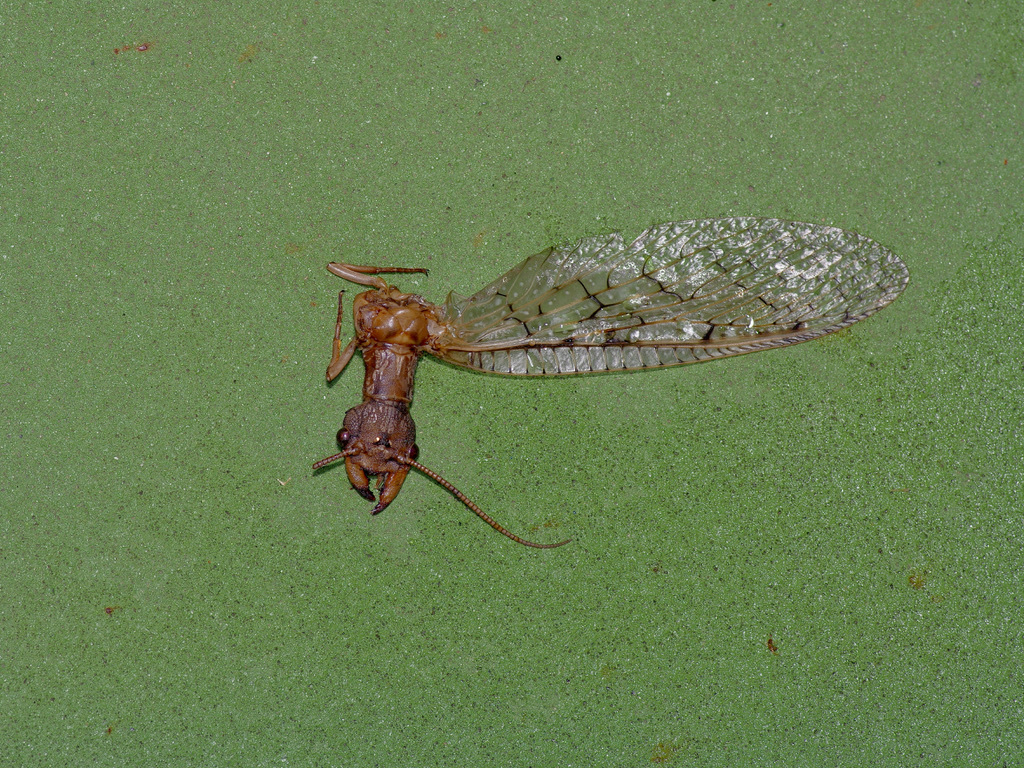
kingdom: Animalia
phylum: Arthropoda
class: Insecta
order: Megaloptera
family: Corydalidae
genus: Corydalus
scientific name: Corydalus cornutus
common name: Dobsonfly
